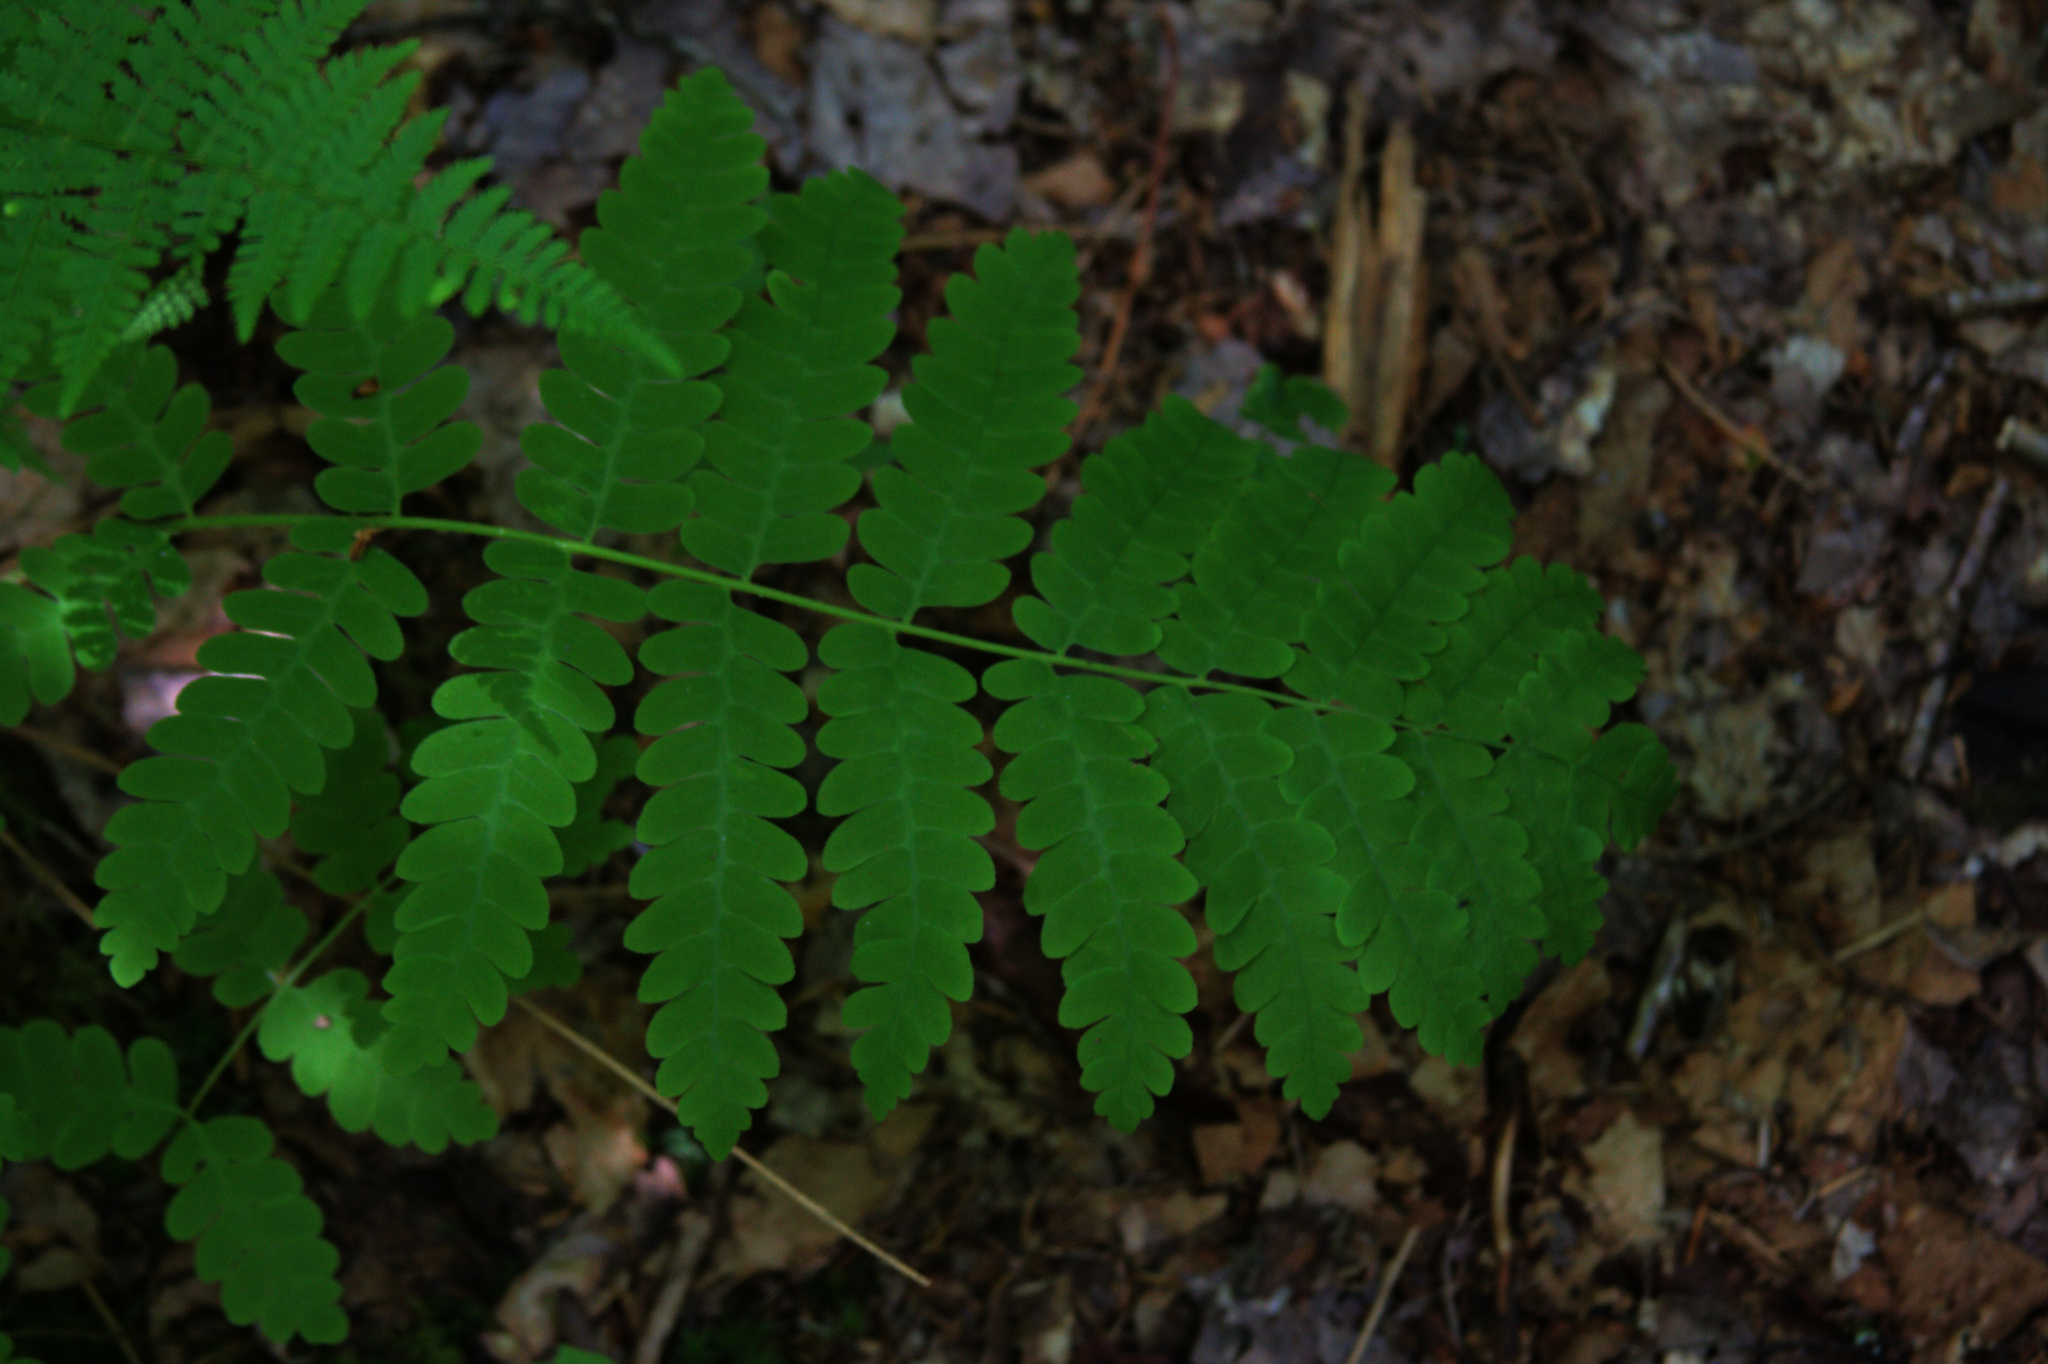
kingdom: Plantae
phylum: Tracheophyta
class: Polypodiopsida
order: Osmundales
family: Osmundaceae
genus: Claytosmunda
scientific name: Claytosmunda claytoniana
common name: Clayton's fern
